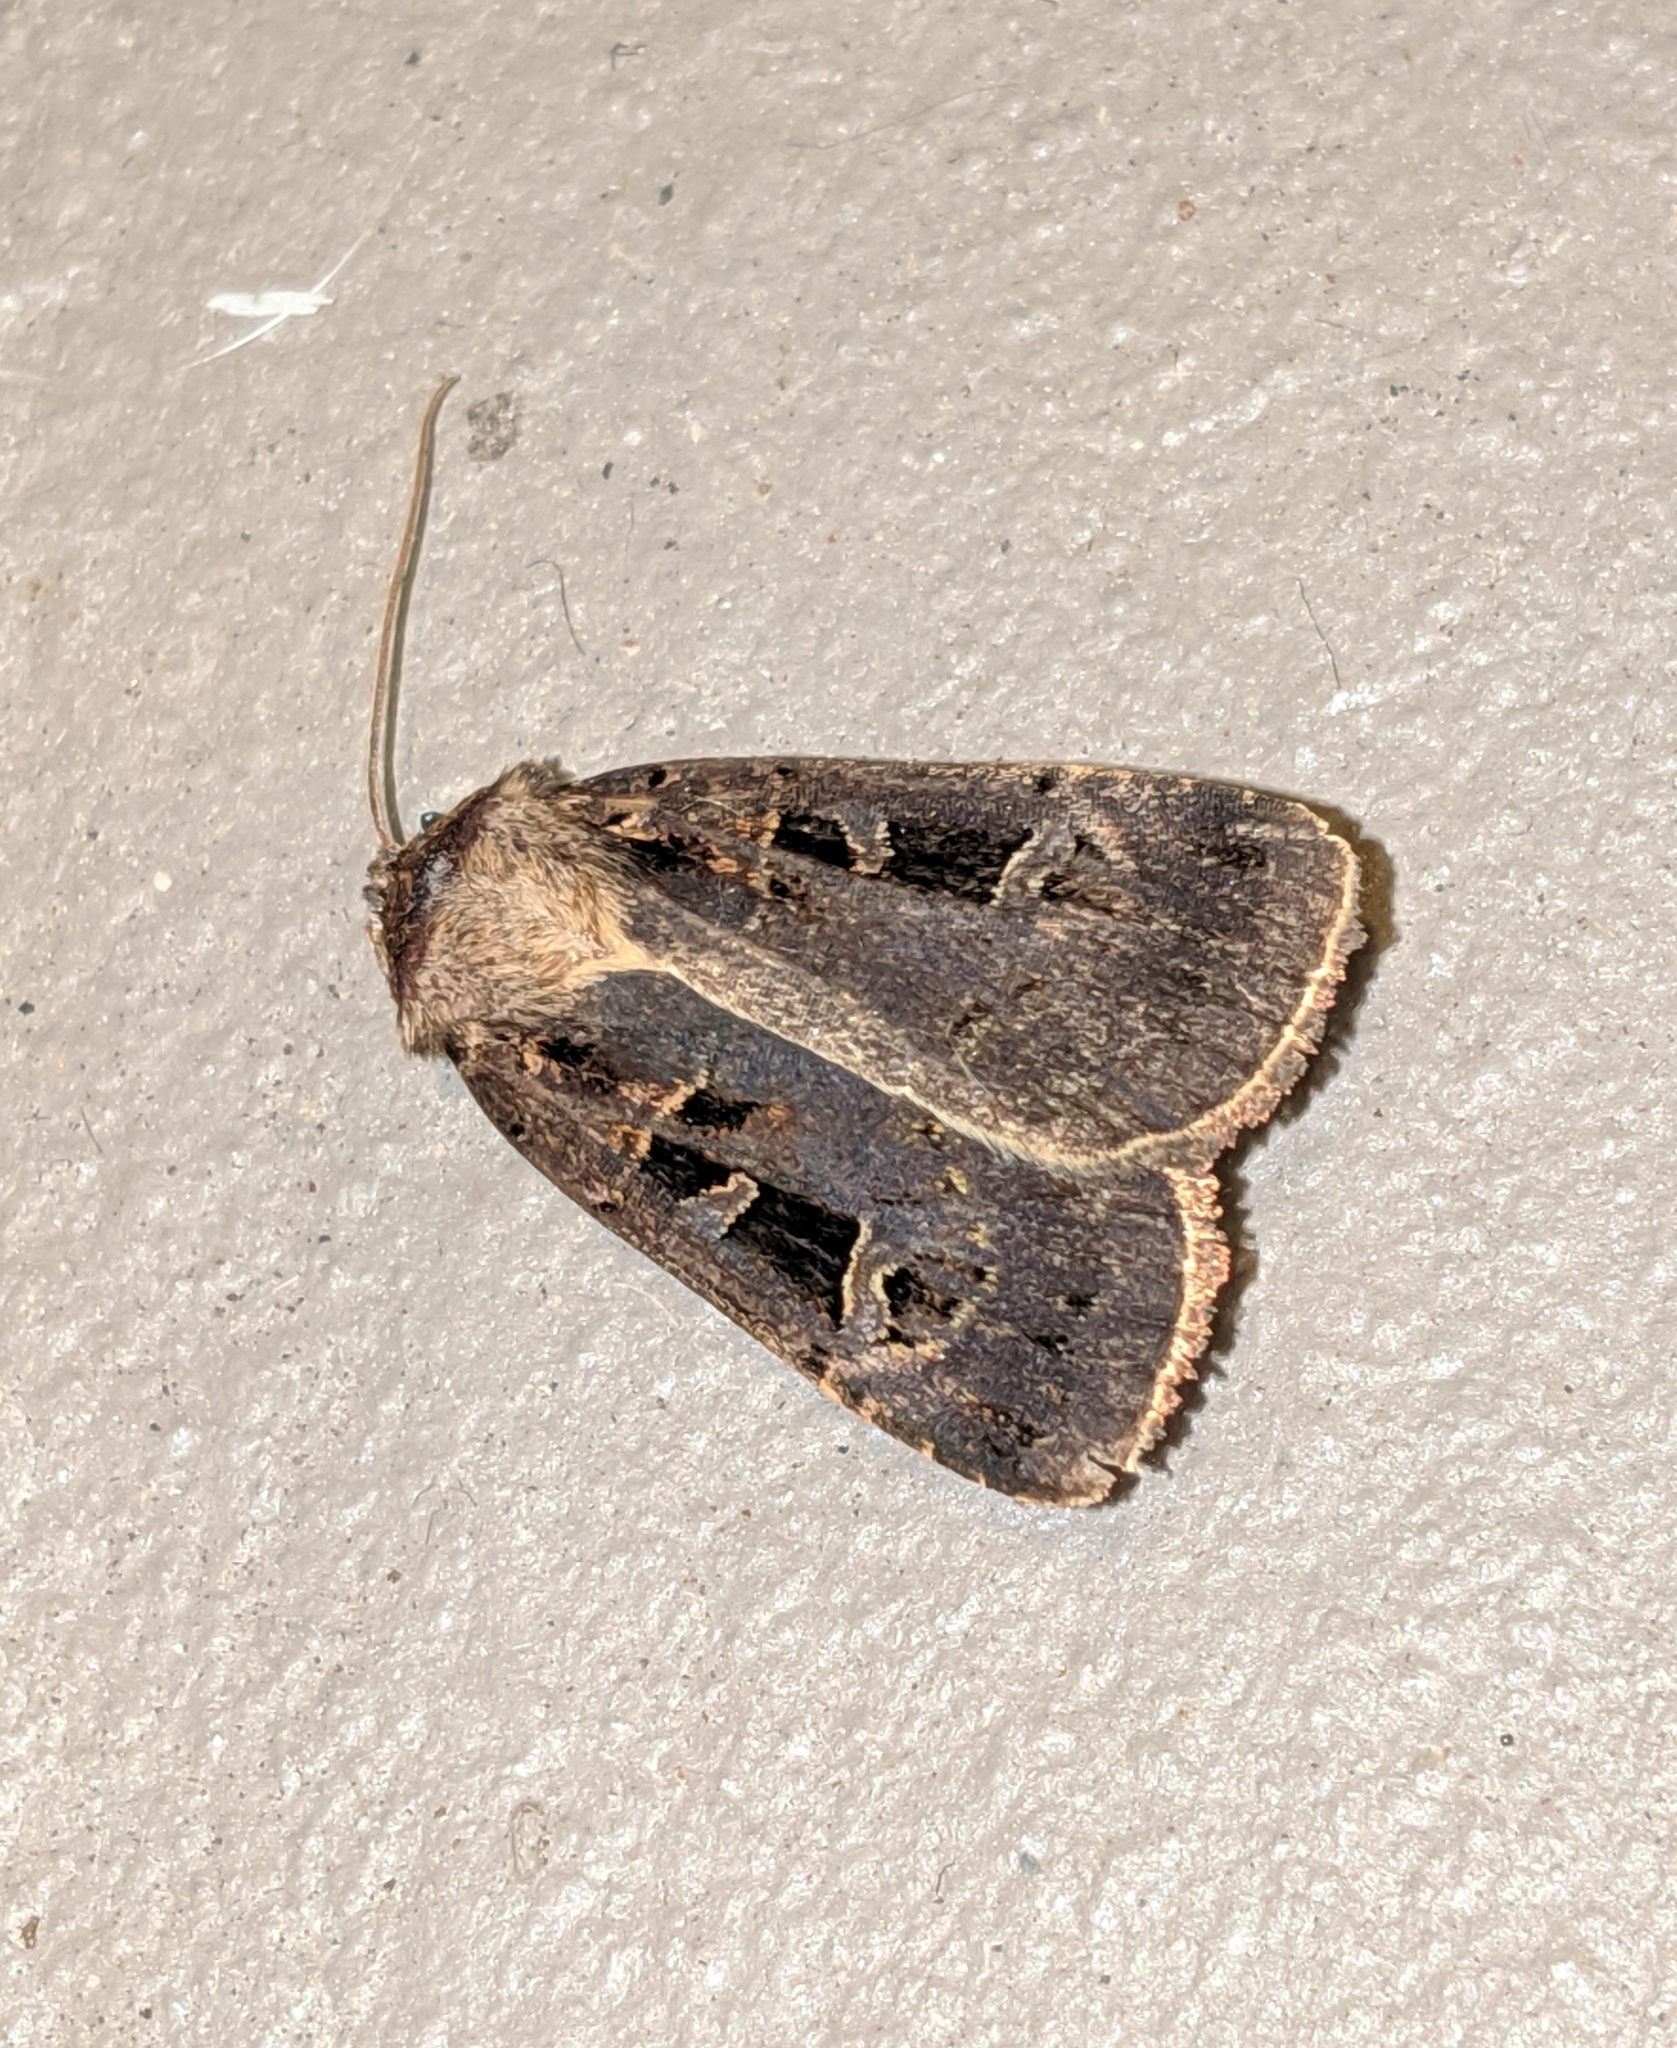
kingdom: Animalia
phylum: Arthropoda
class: Insecta
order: Lepidoptera
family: Noctuidae
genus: Pseudohermonassa
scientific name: Pseudohermonassa tenuicula
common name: Morrison's sooty dart
